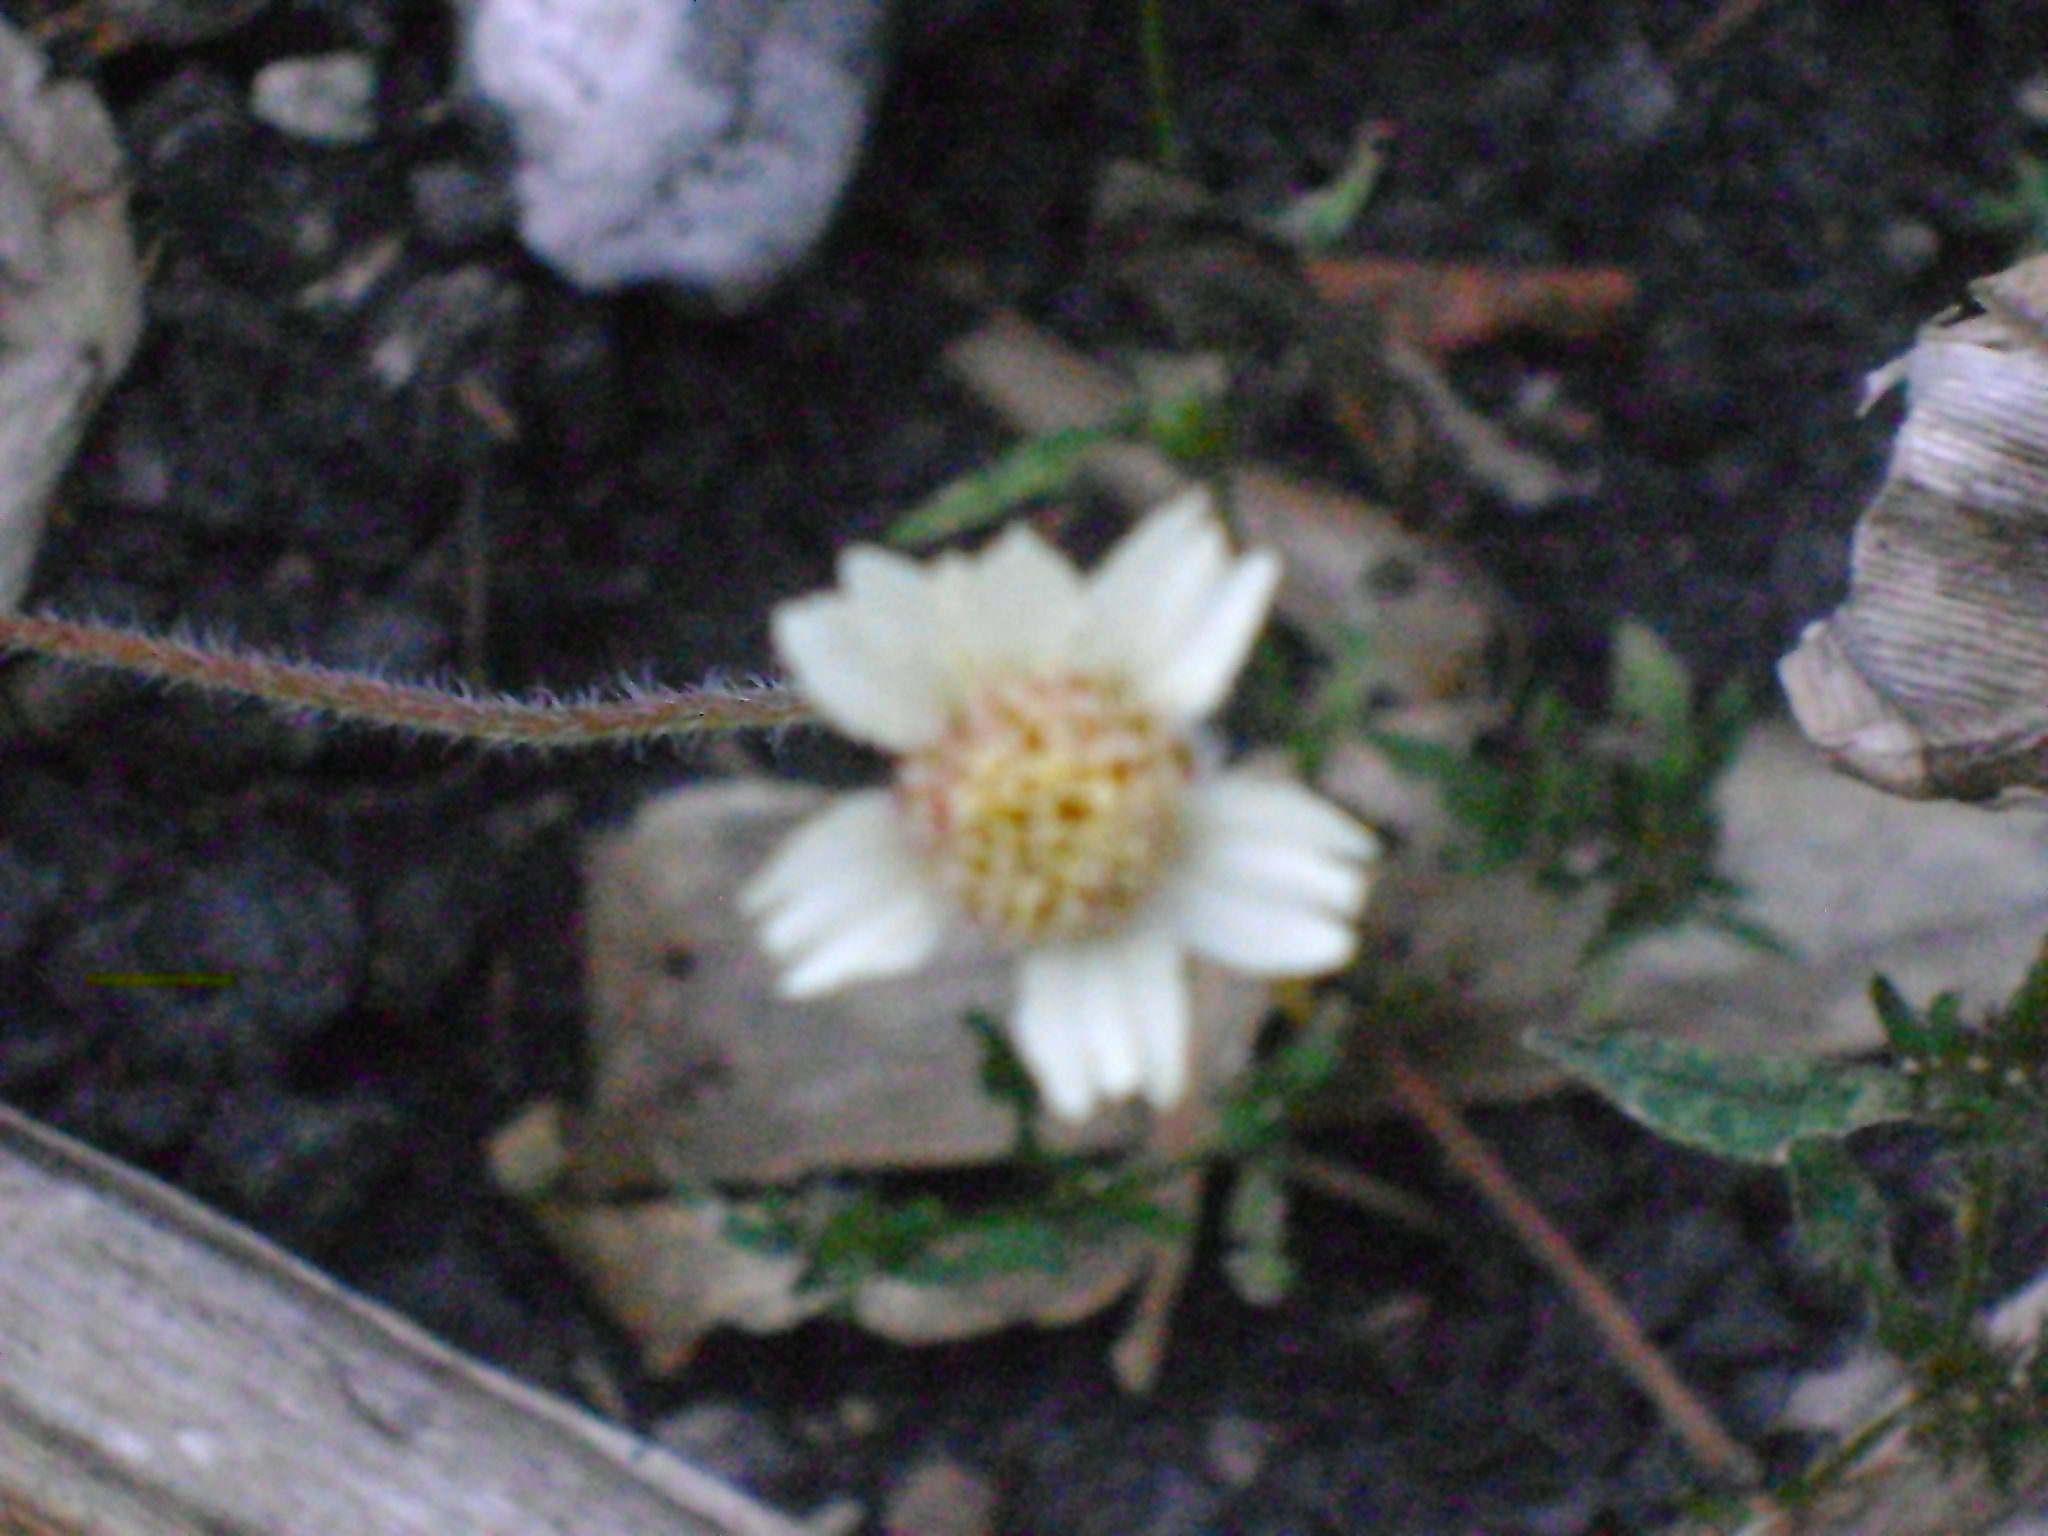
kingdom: Plantae
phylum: Tracheophyta
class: Magnoliopsida
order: Asterales
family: Asteraceae
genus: Tridax
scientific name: Tridax procumbens
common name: Coatbuttons
